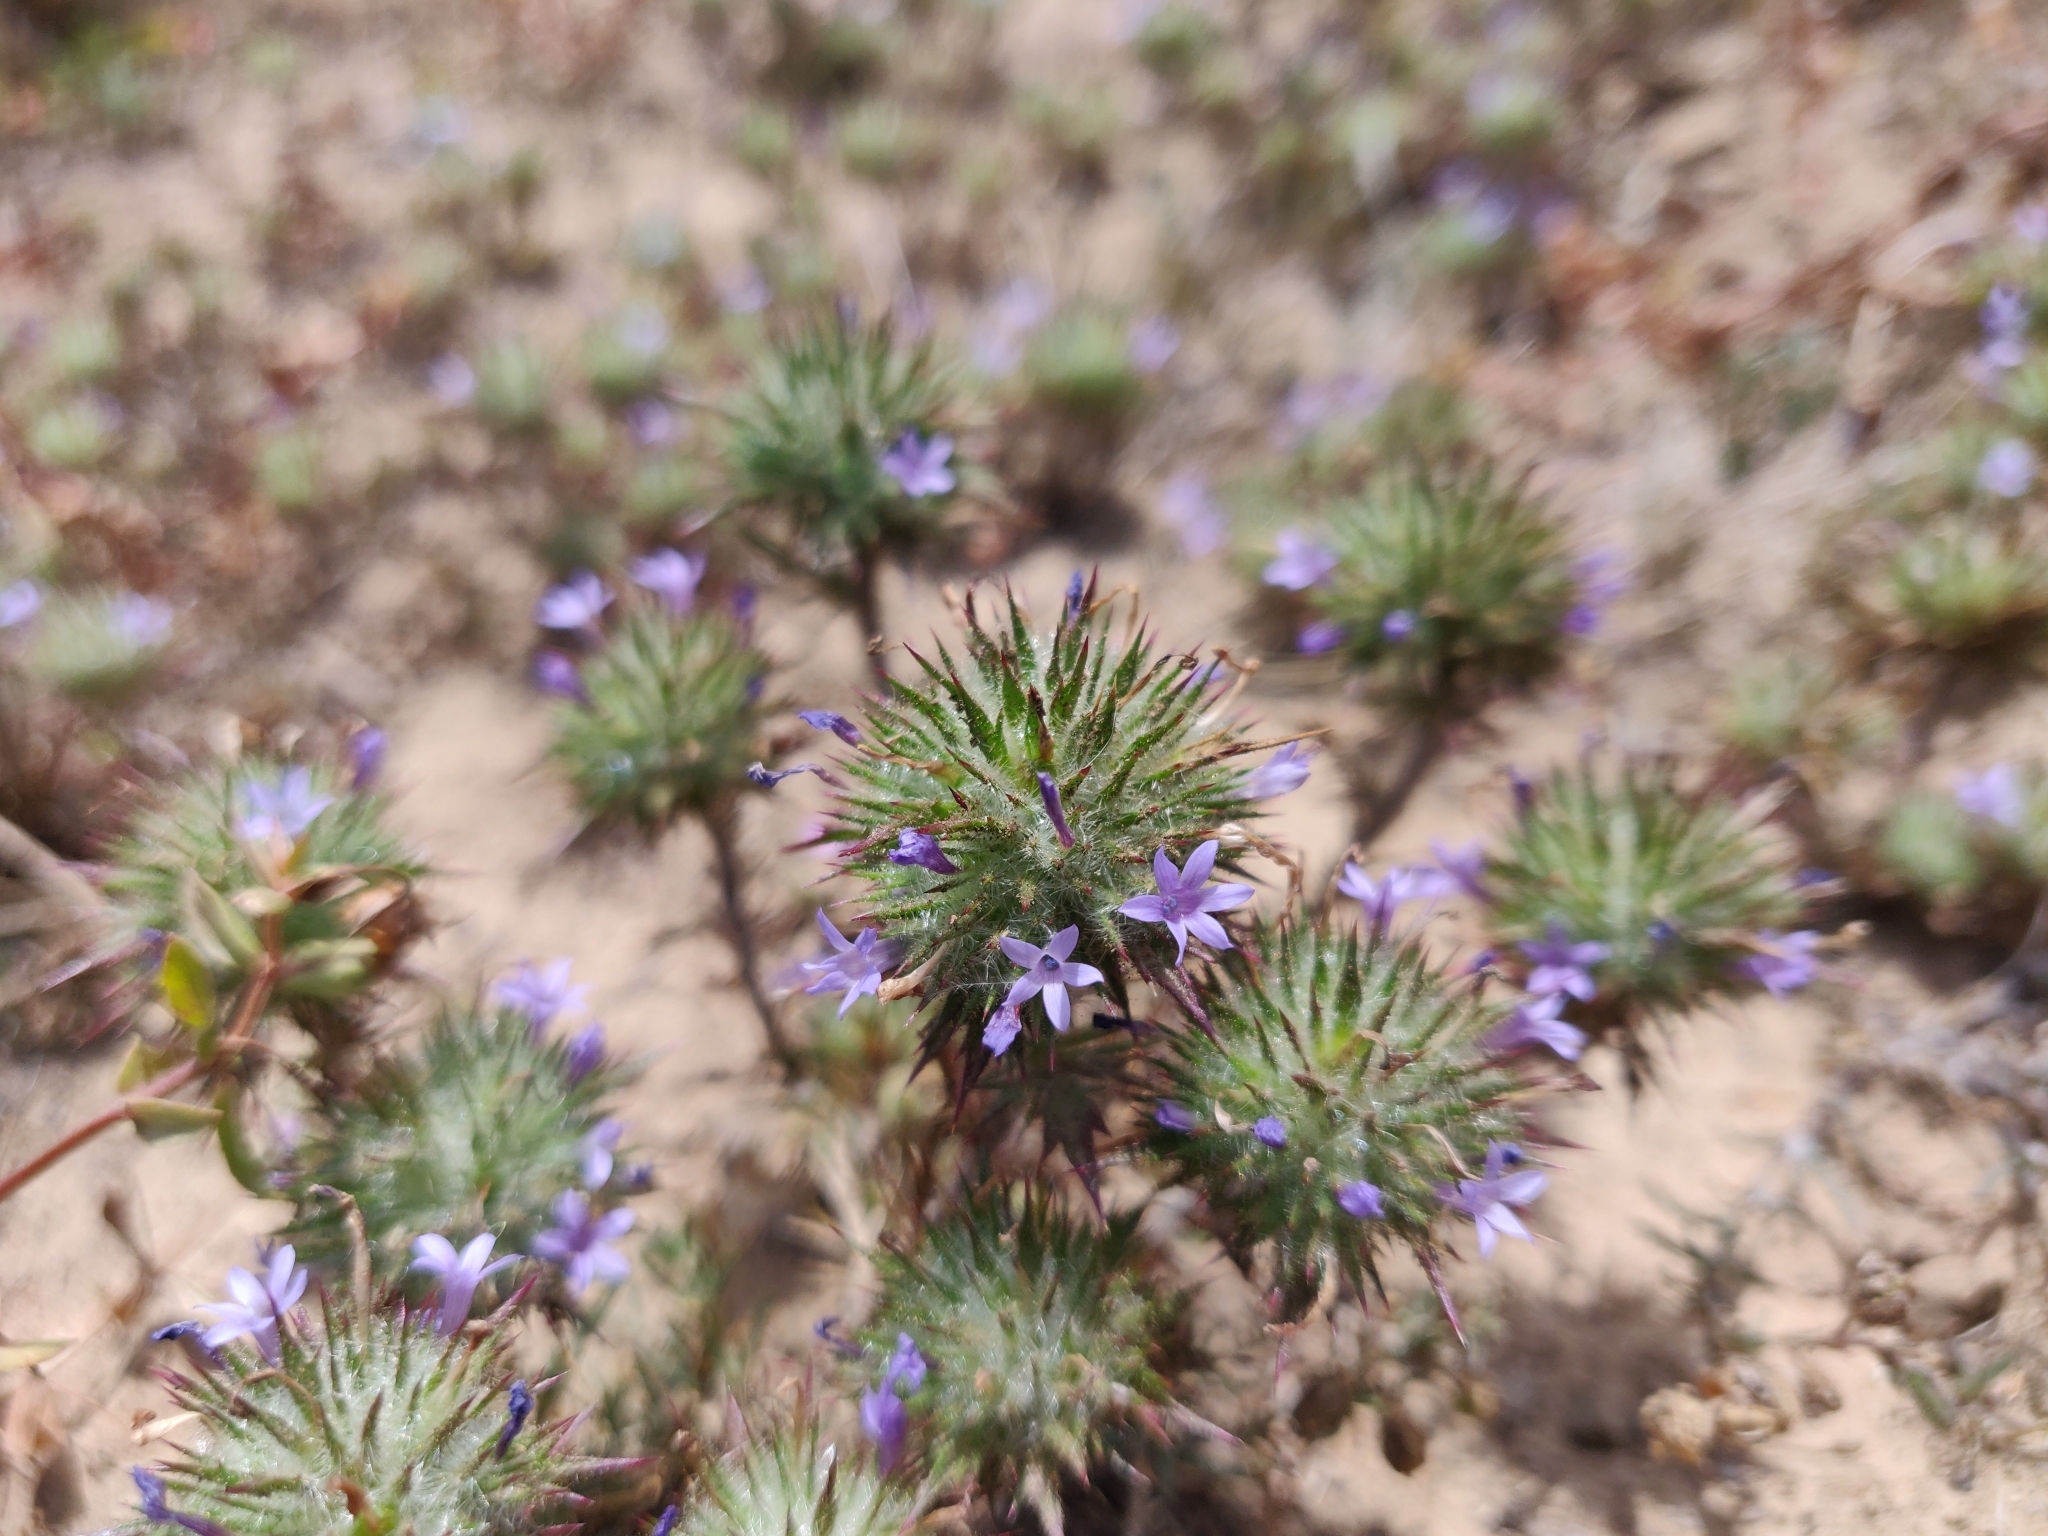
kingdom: Plantae
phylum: Tracheophyta
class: Magnoliopsida
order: Ericales
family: Polemoniaceae
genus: Navarretia
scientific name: Navarretia squarrosa
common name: Skunkweed
